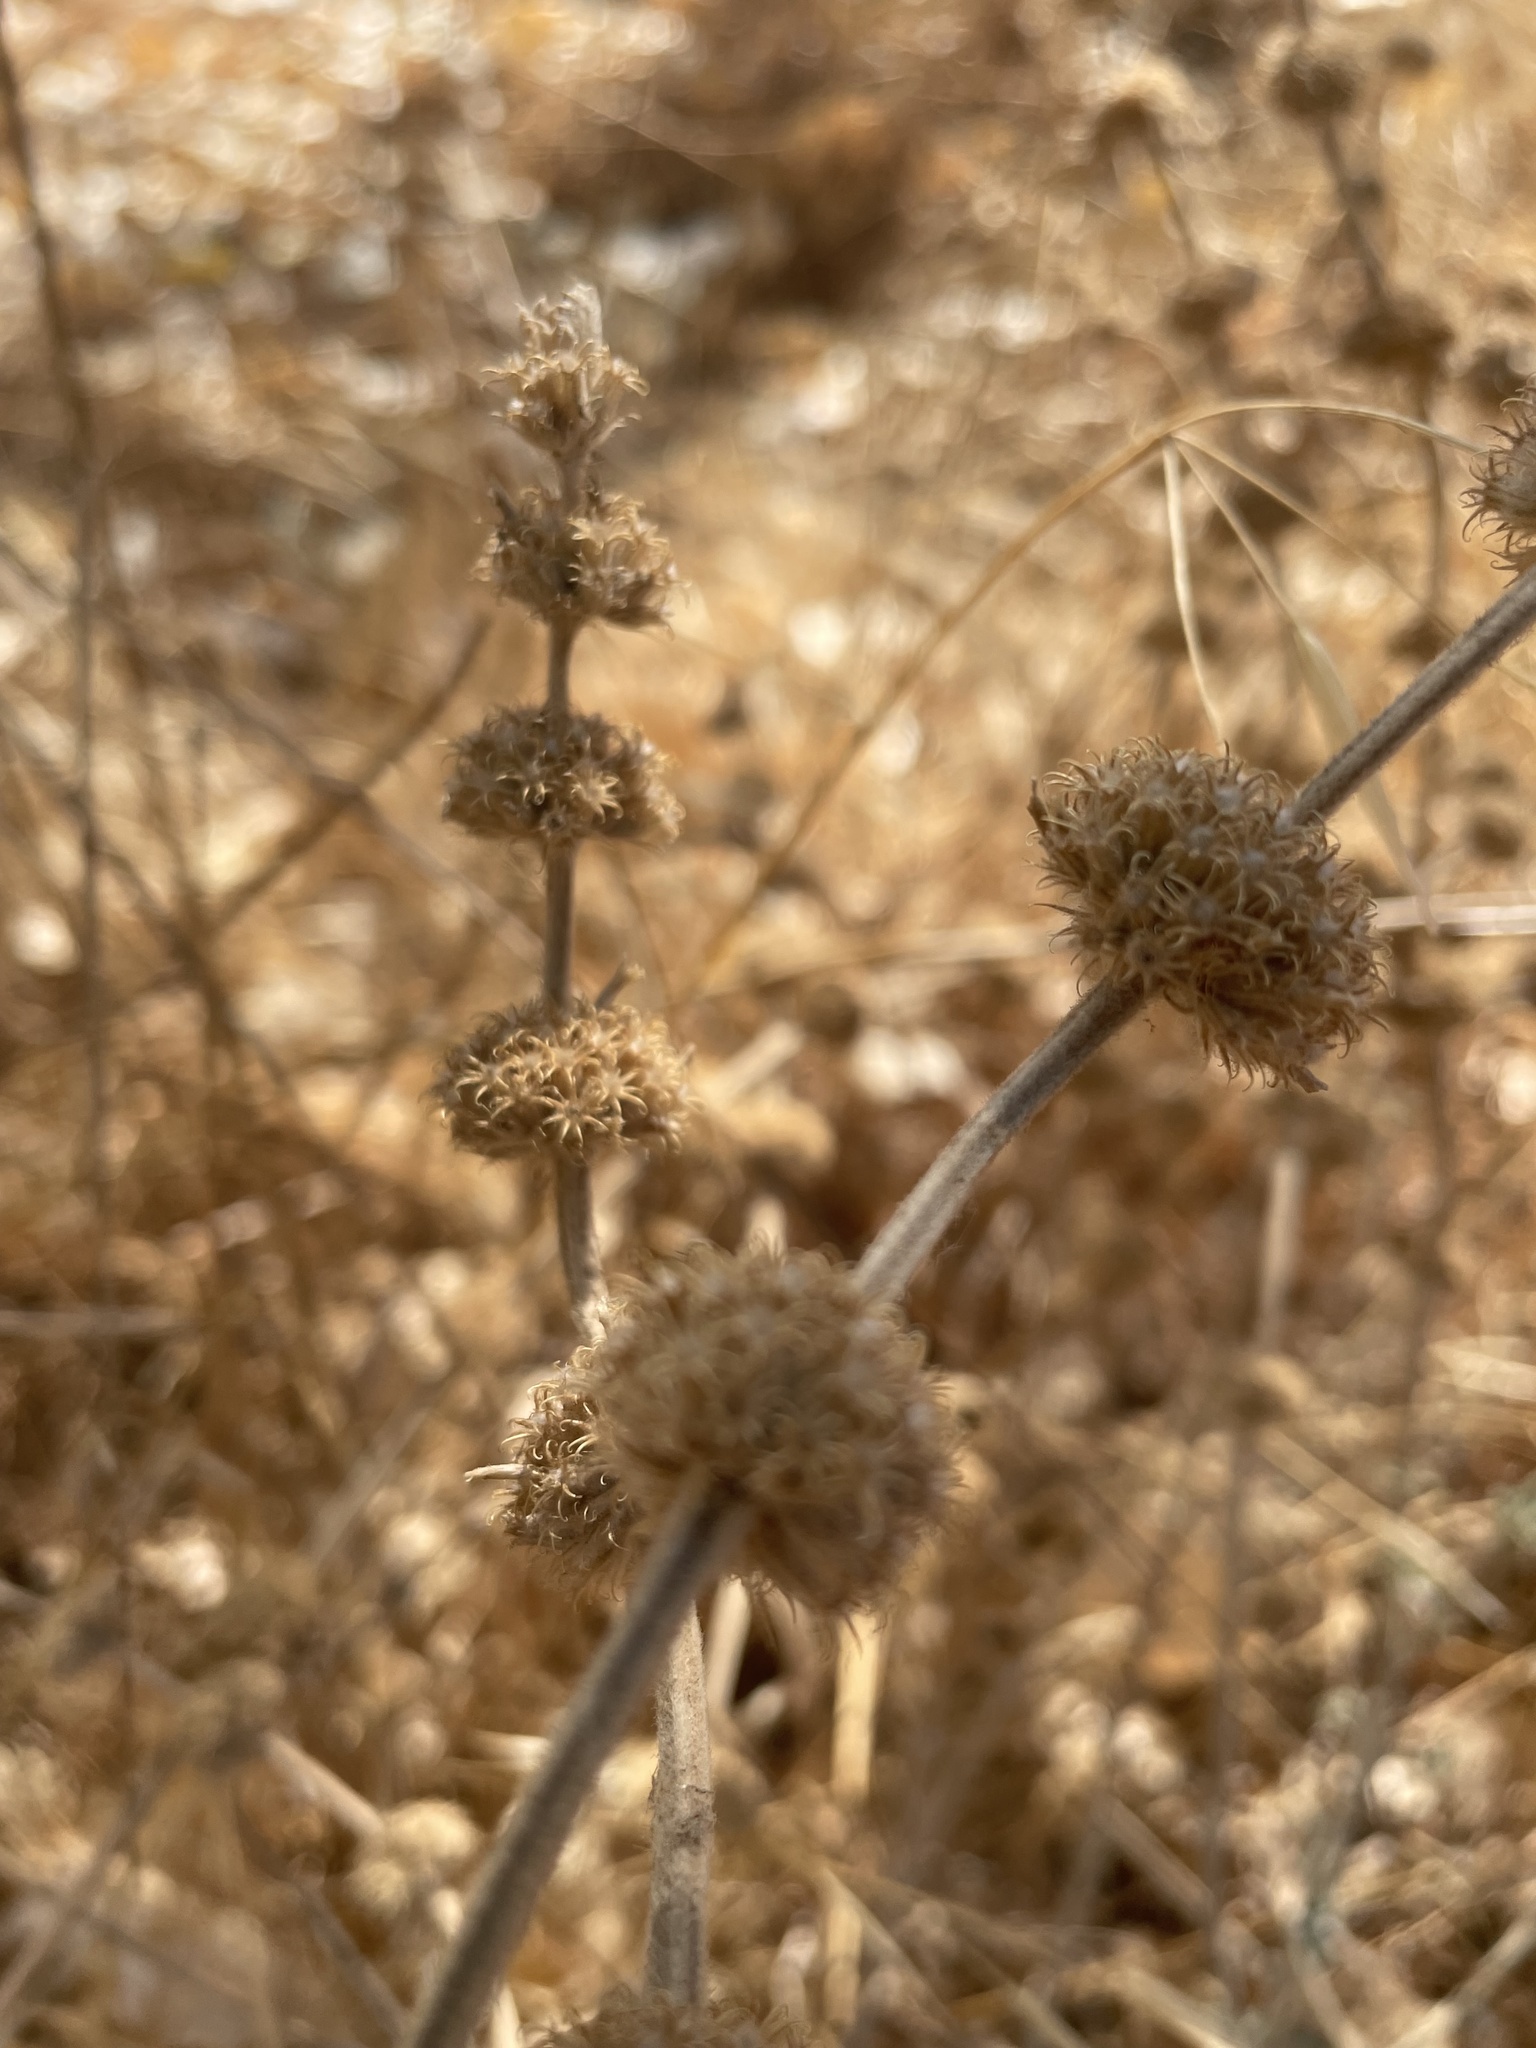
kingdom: Plantae
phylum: Tracheophyta
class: Magnoliopsida
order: Lamiales
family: Lamiaceae
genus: Marrubium
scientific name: Marrubium vulgare
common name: Horehound
